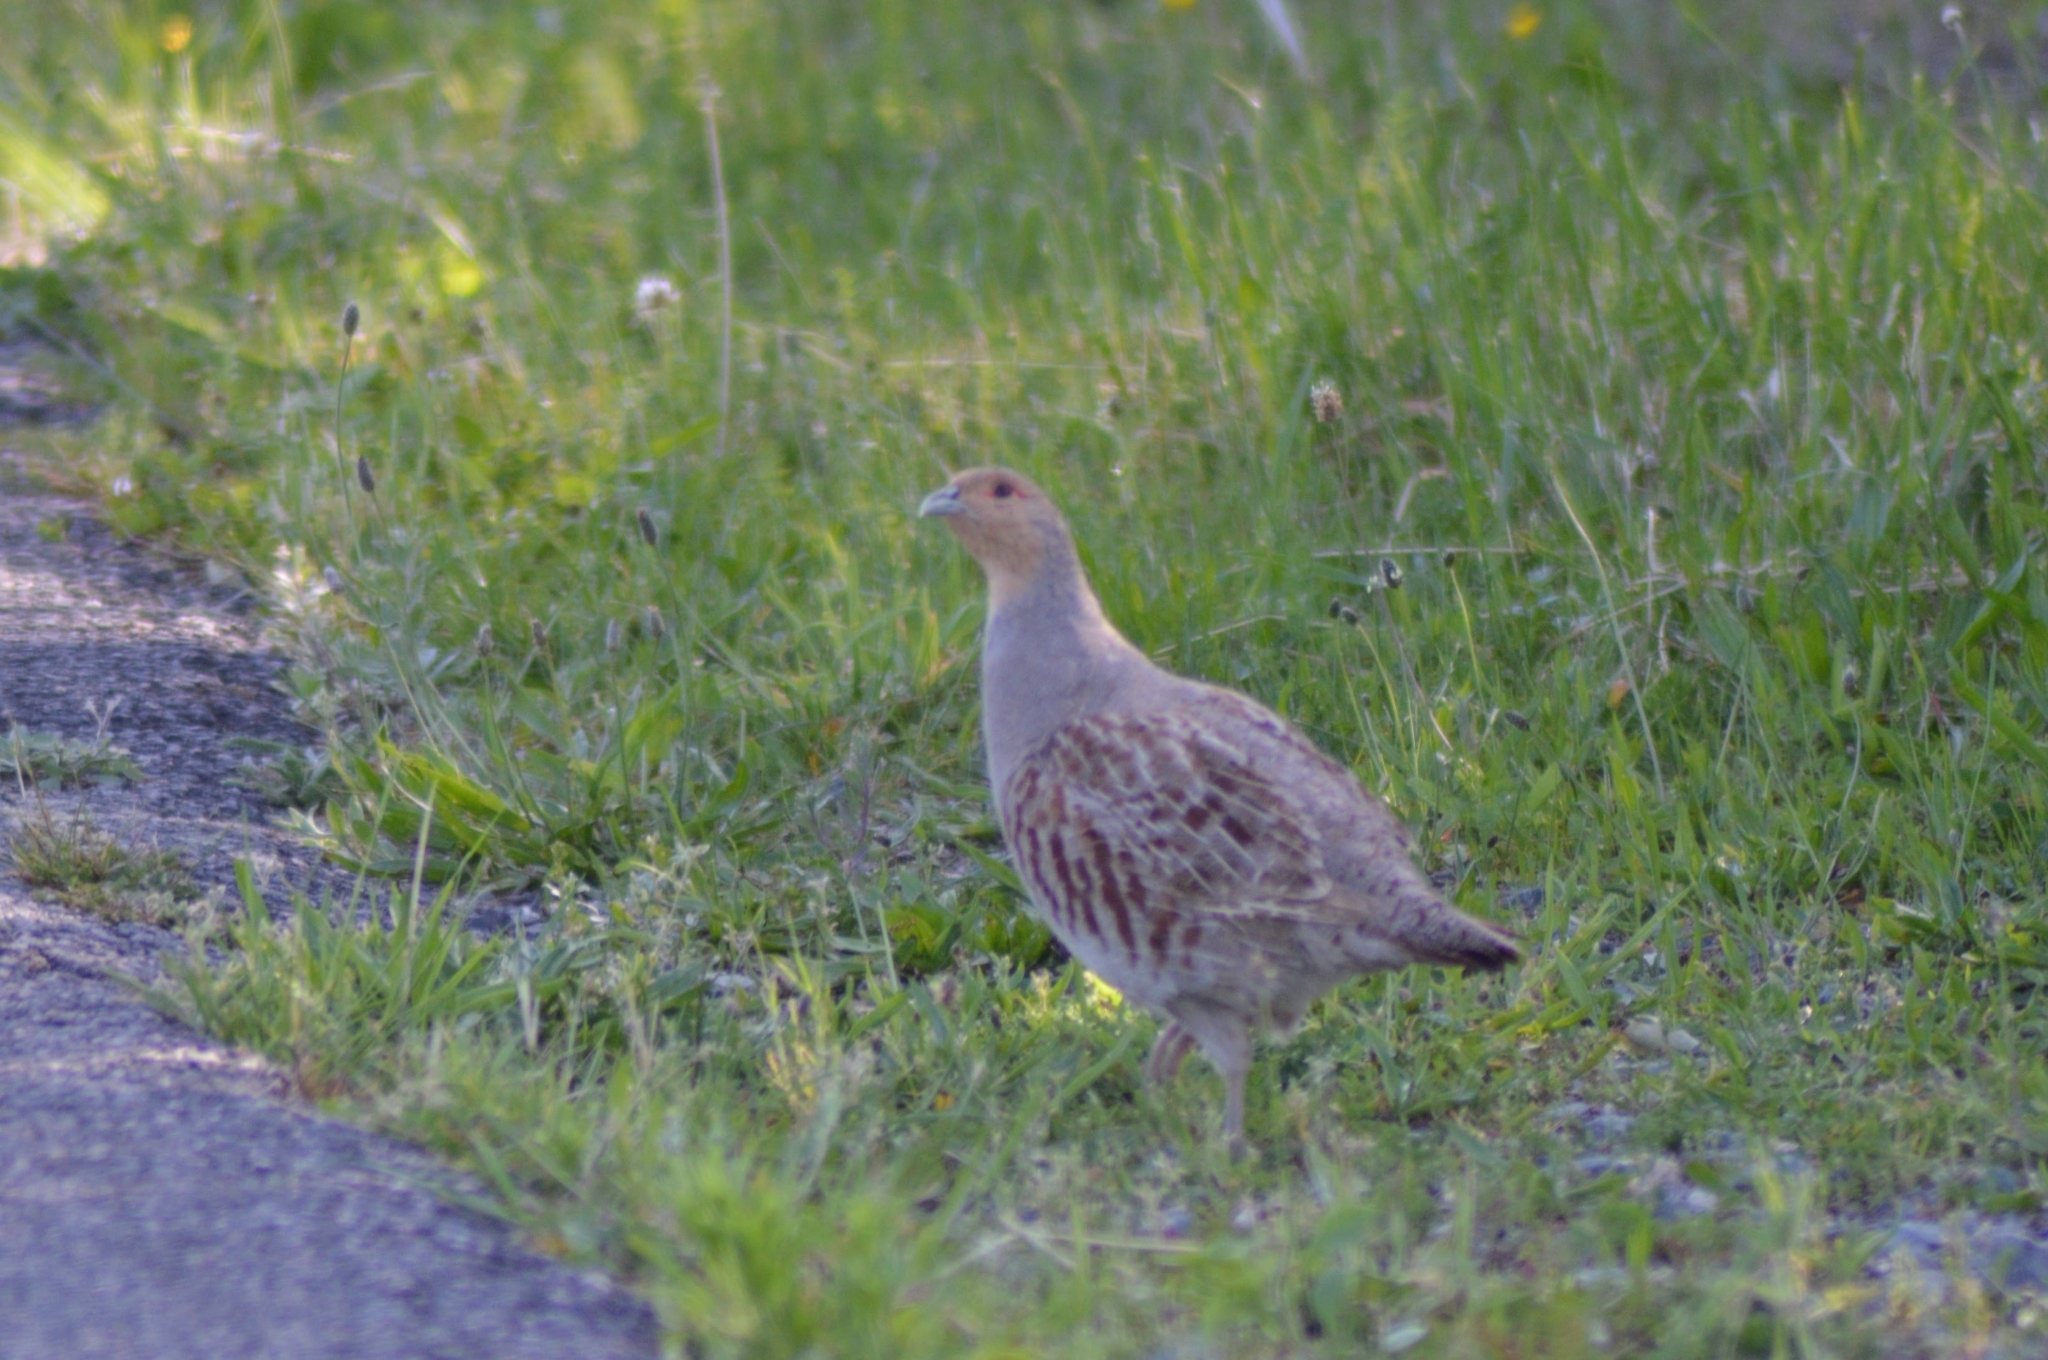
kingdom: Animalia
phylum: Chordata
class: Aves
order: Galliformes
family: Phasianidae
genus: Perdix
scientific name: Perdix perdix
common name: Grey partridge
